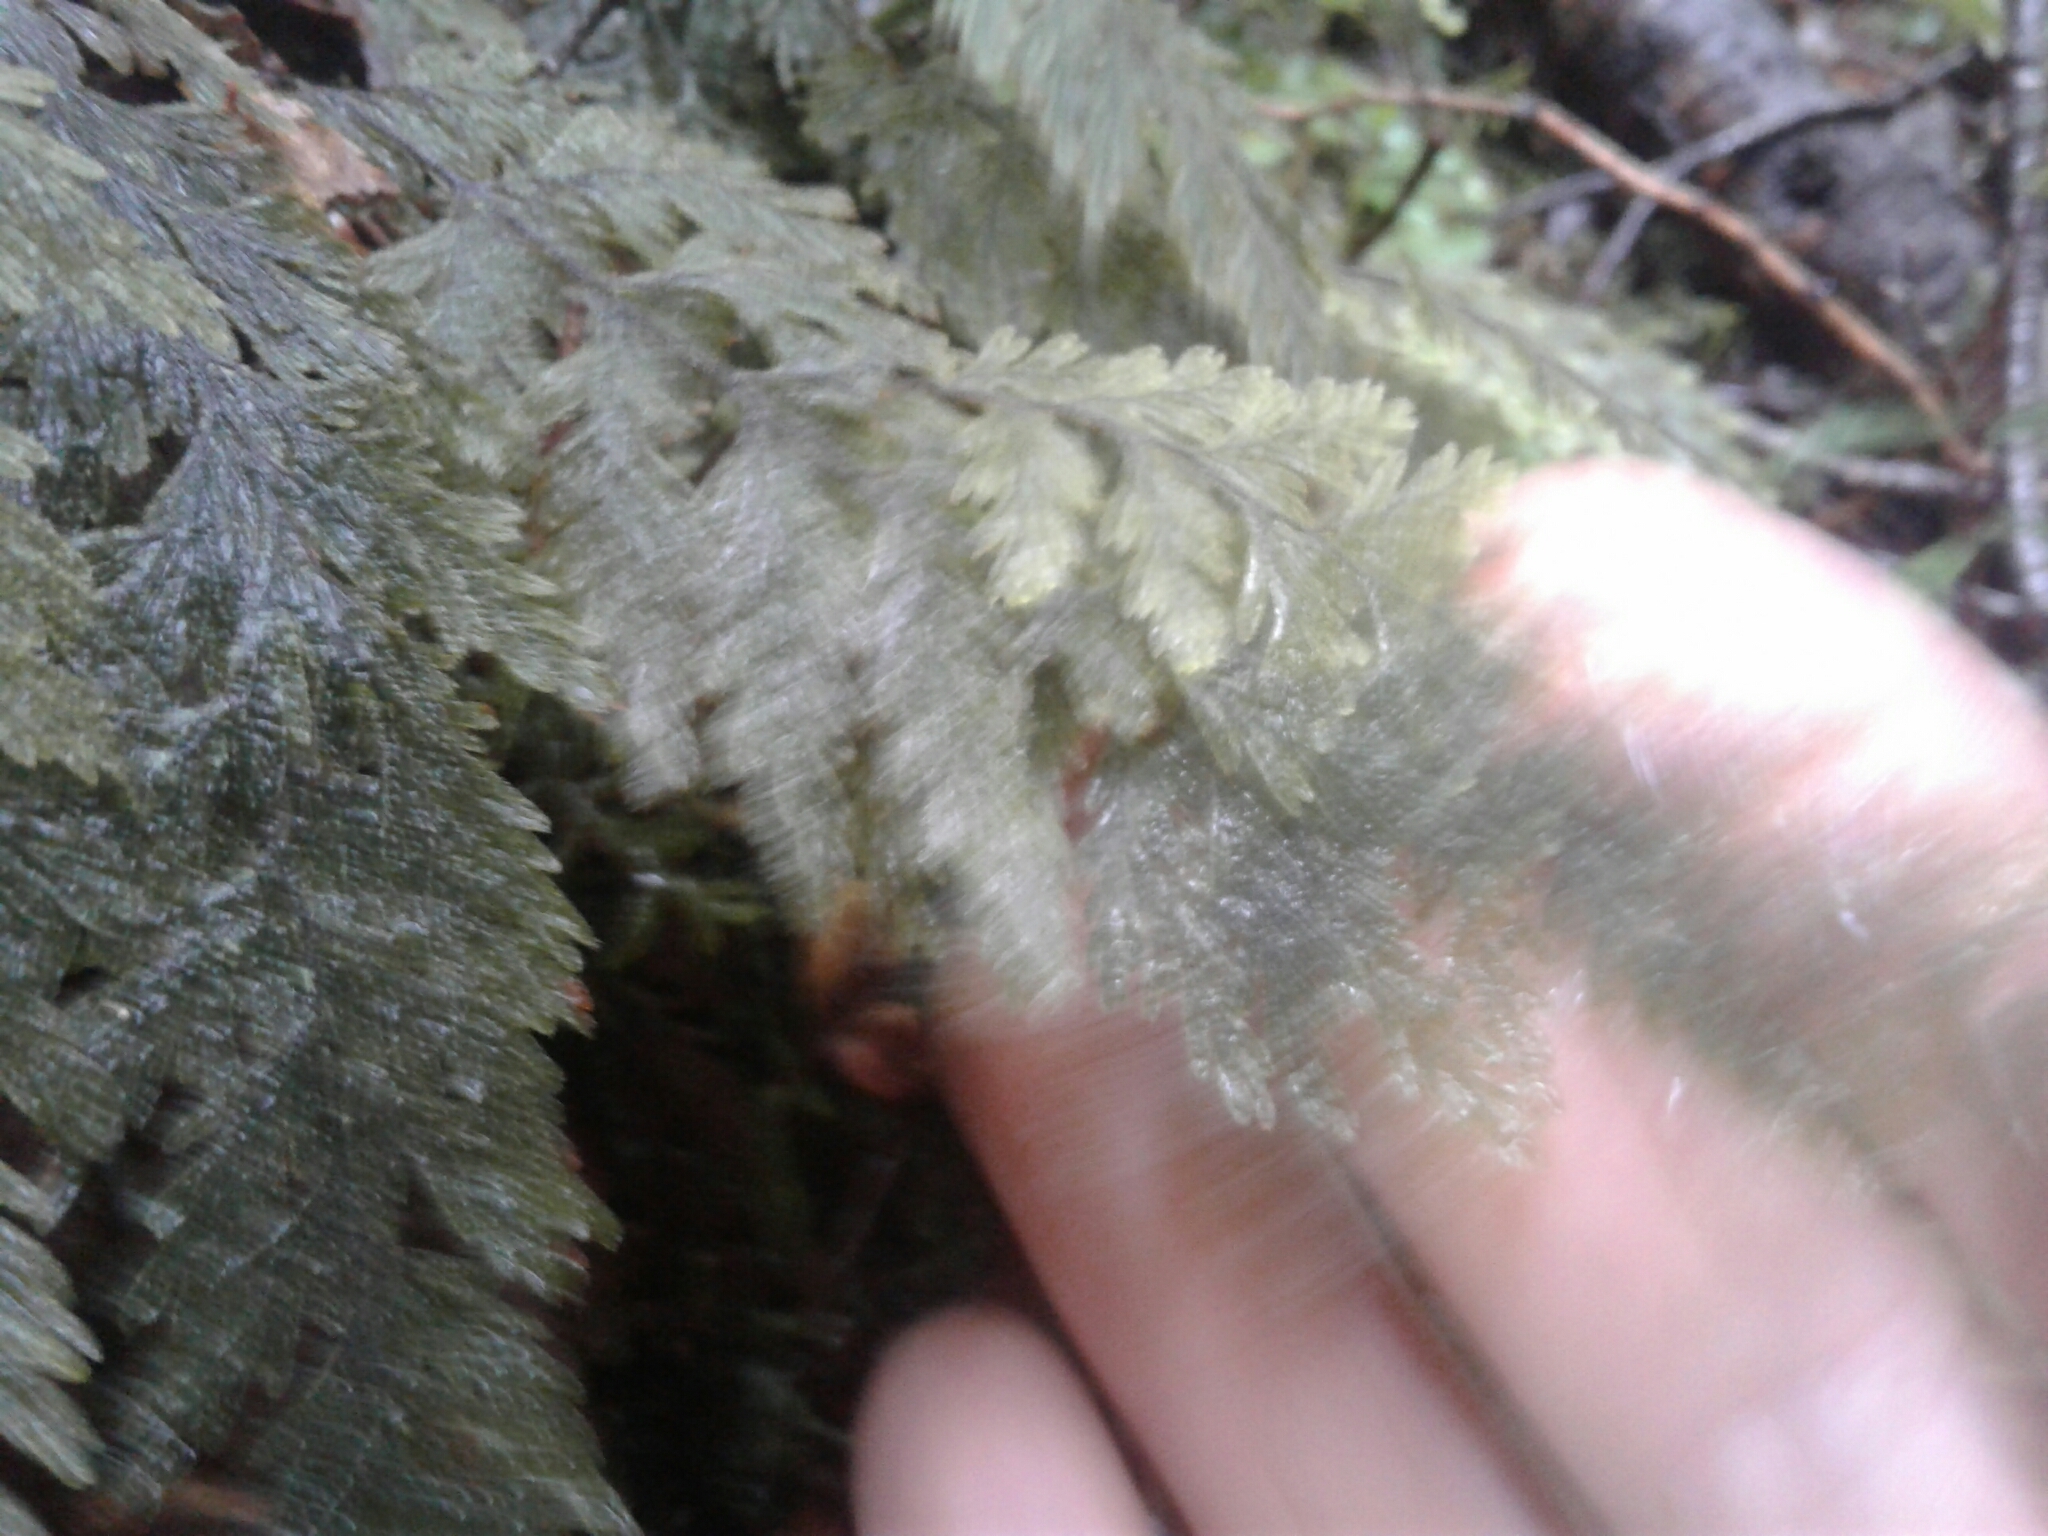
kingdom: Plantae
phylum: Tracheophyta
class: Polypodiopsida
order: Hymenophyllales
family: Hymenophyllaceae
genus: Hymenophyllum
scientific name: Hymenophyllum frankliniae
